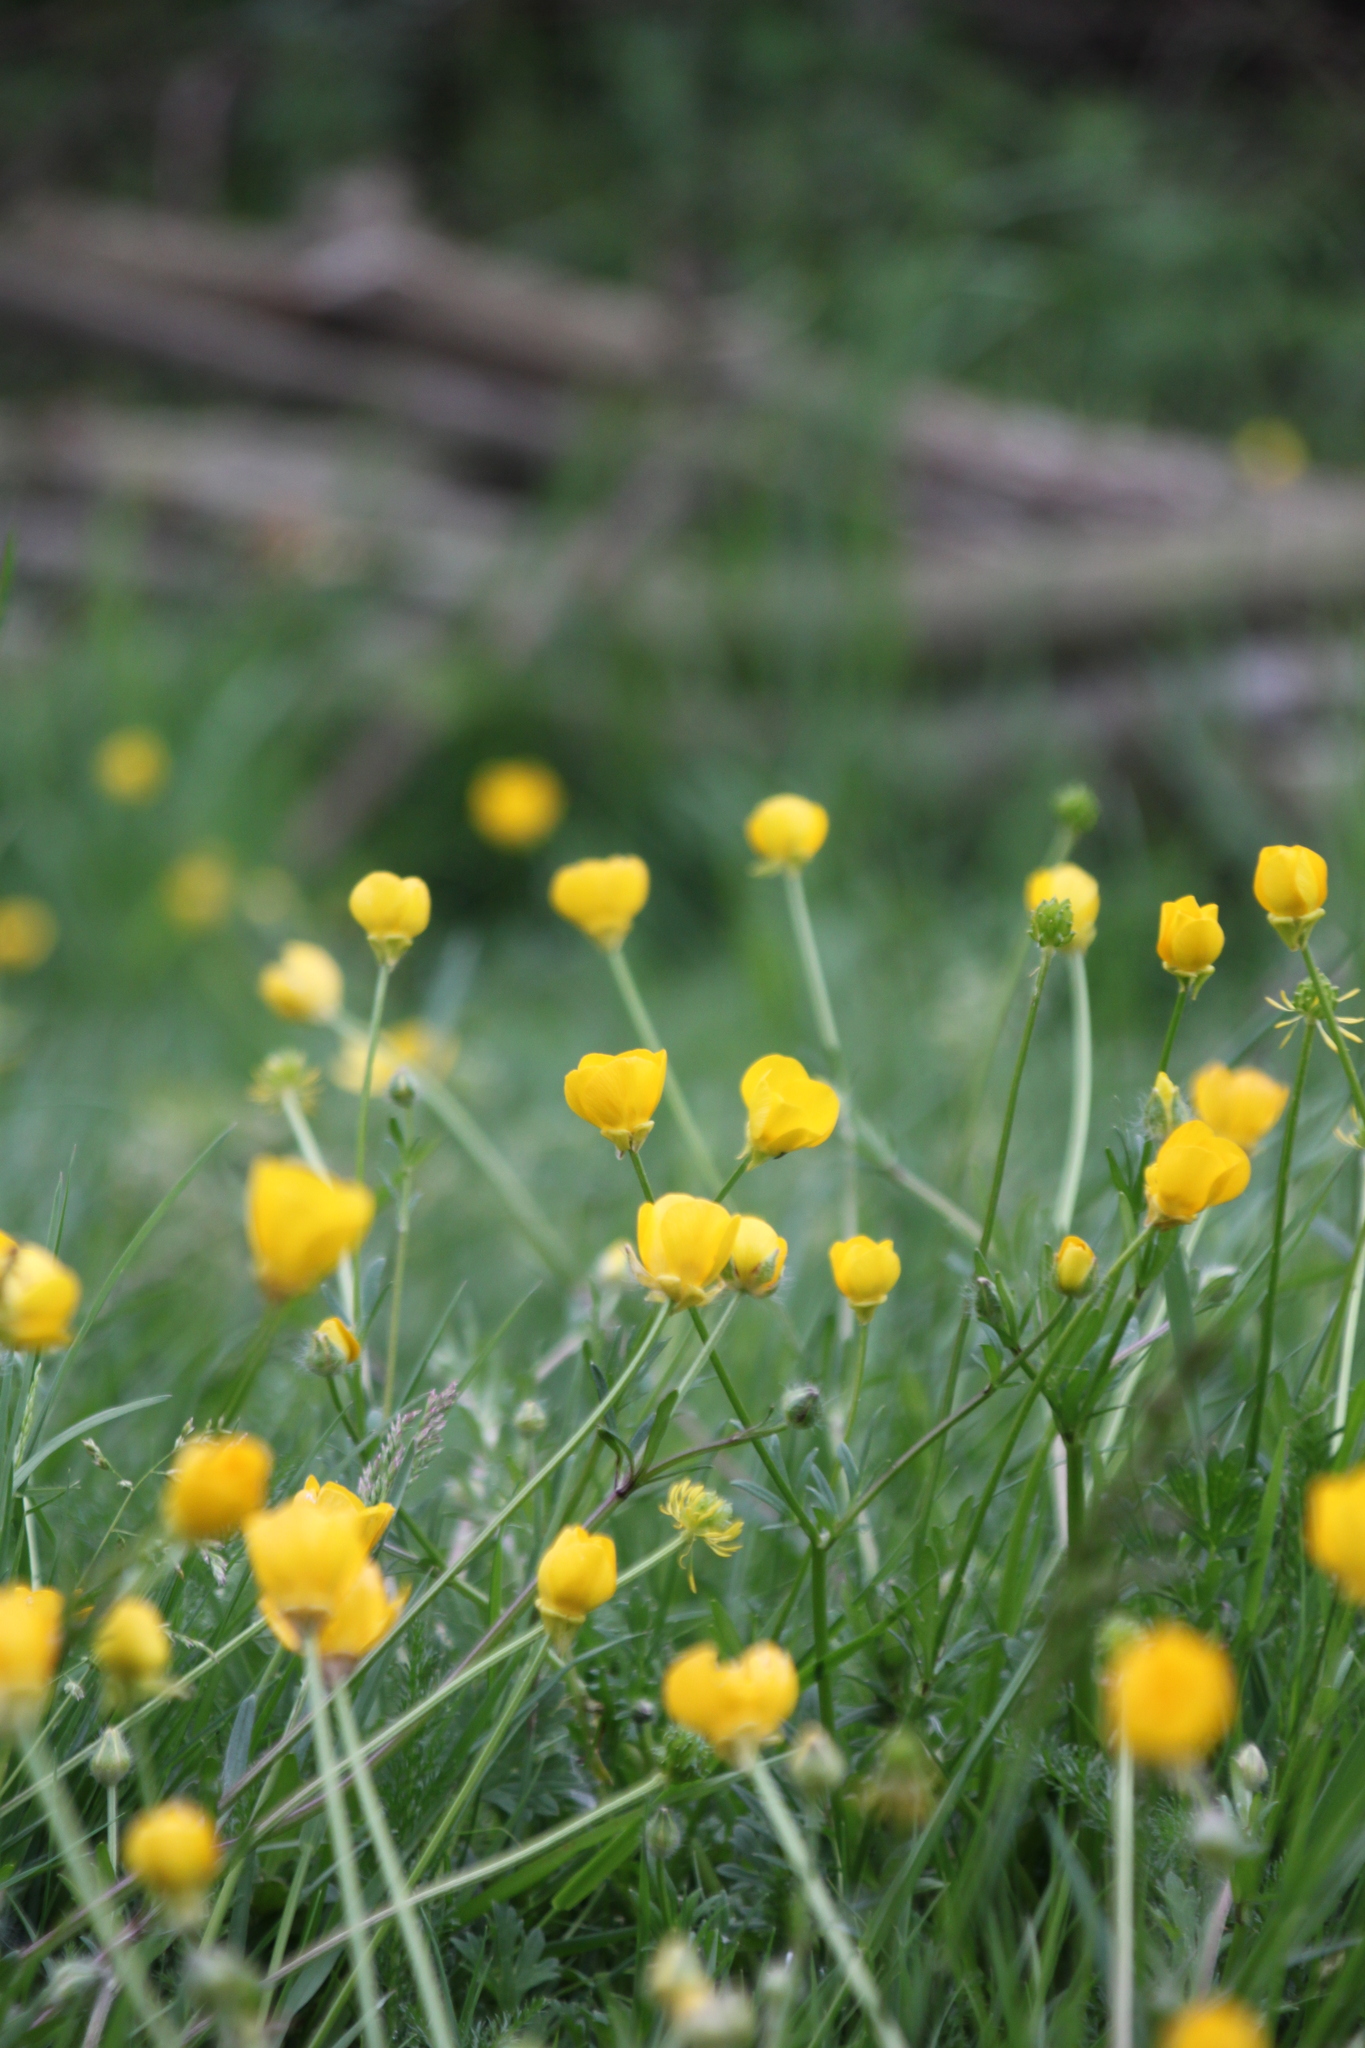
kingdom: Plantae
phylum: Tracheophyta
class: Magnoliopsida
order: Ranunculales
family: Ranunculaceae
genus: Ranunculus
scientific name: Ranunculus bulbosus
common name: Bulbous buttercup
